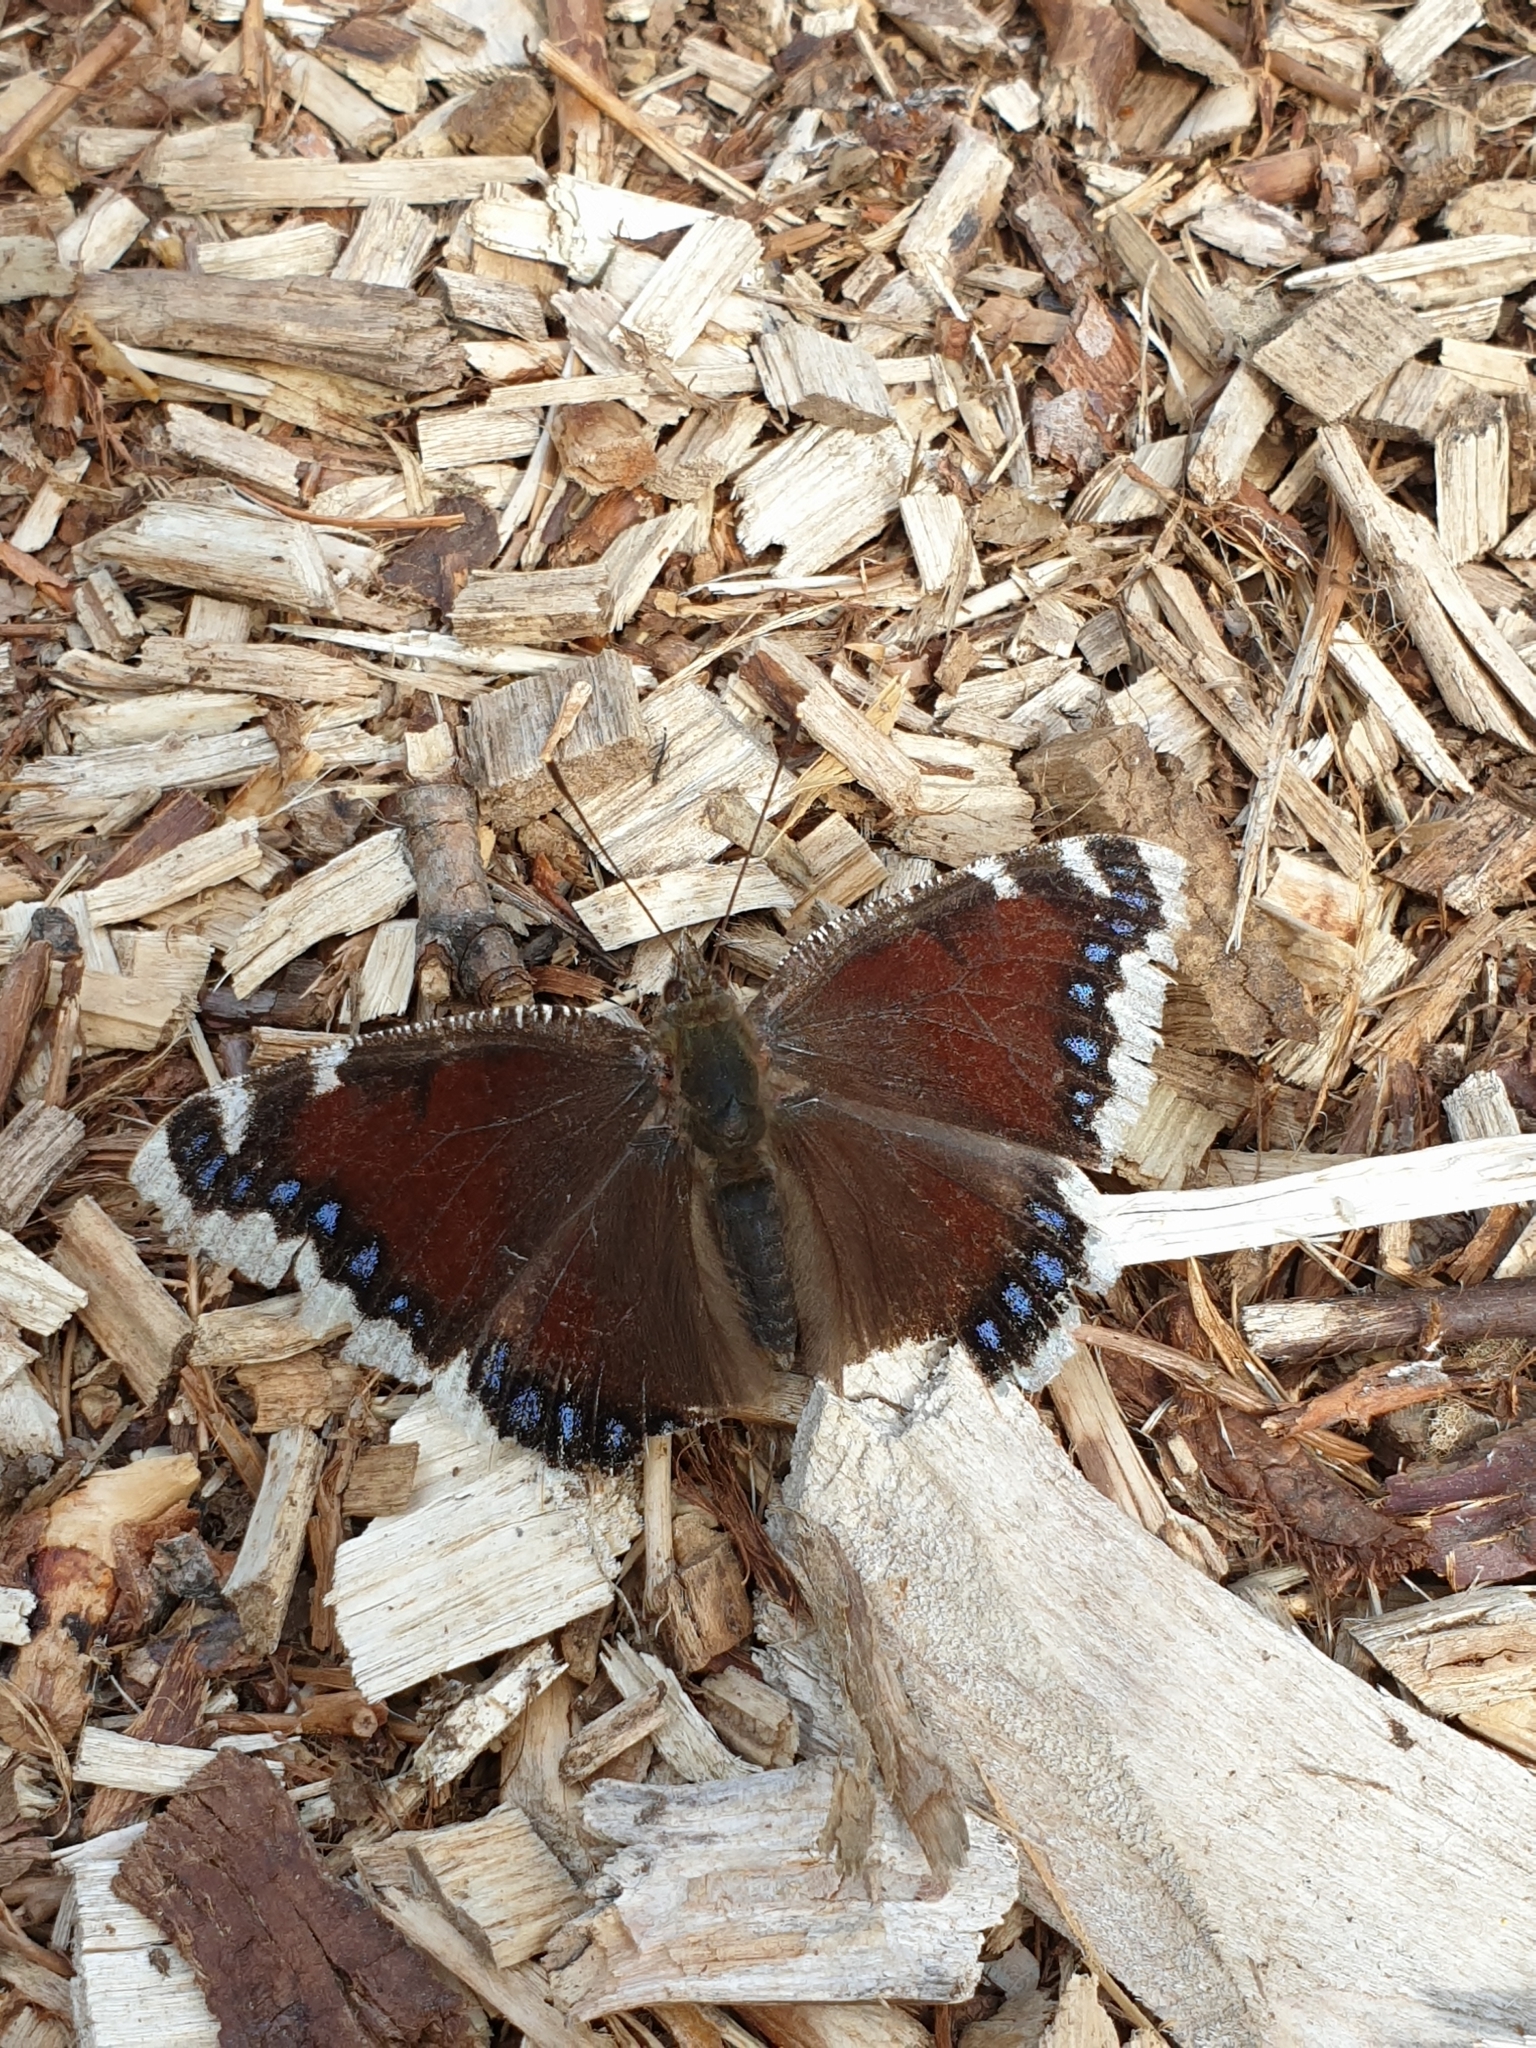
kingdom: Animalia
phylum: Arthropoda
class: Insecta
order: Lepidoptera
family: Nymphalidae
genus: Nymphalis
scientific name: Nymphalis antiopa
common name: Camberwell beauty
